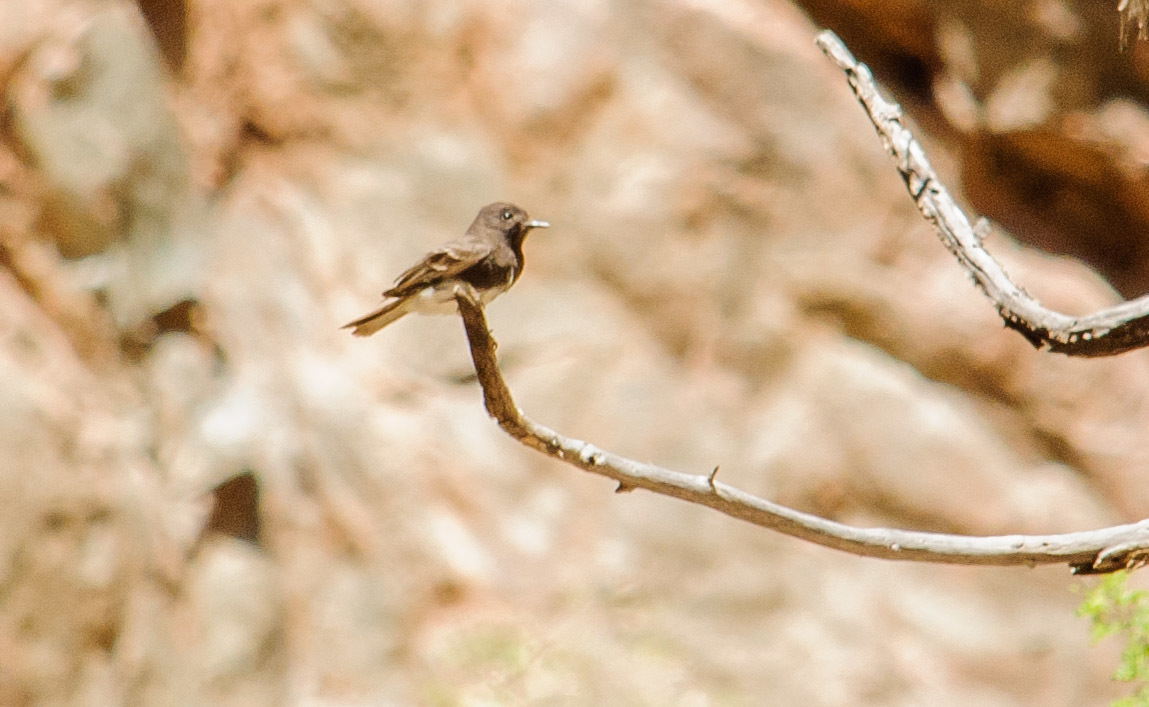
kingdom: Animalia
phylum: Chordata
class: Aves
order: Passeriformes
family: Tyrannidae
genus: Sayornis
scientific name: Sayornis nigricans
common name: Black phoebe
